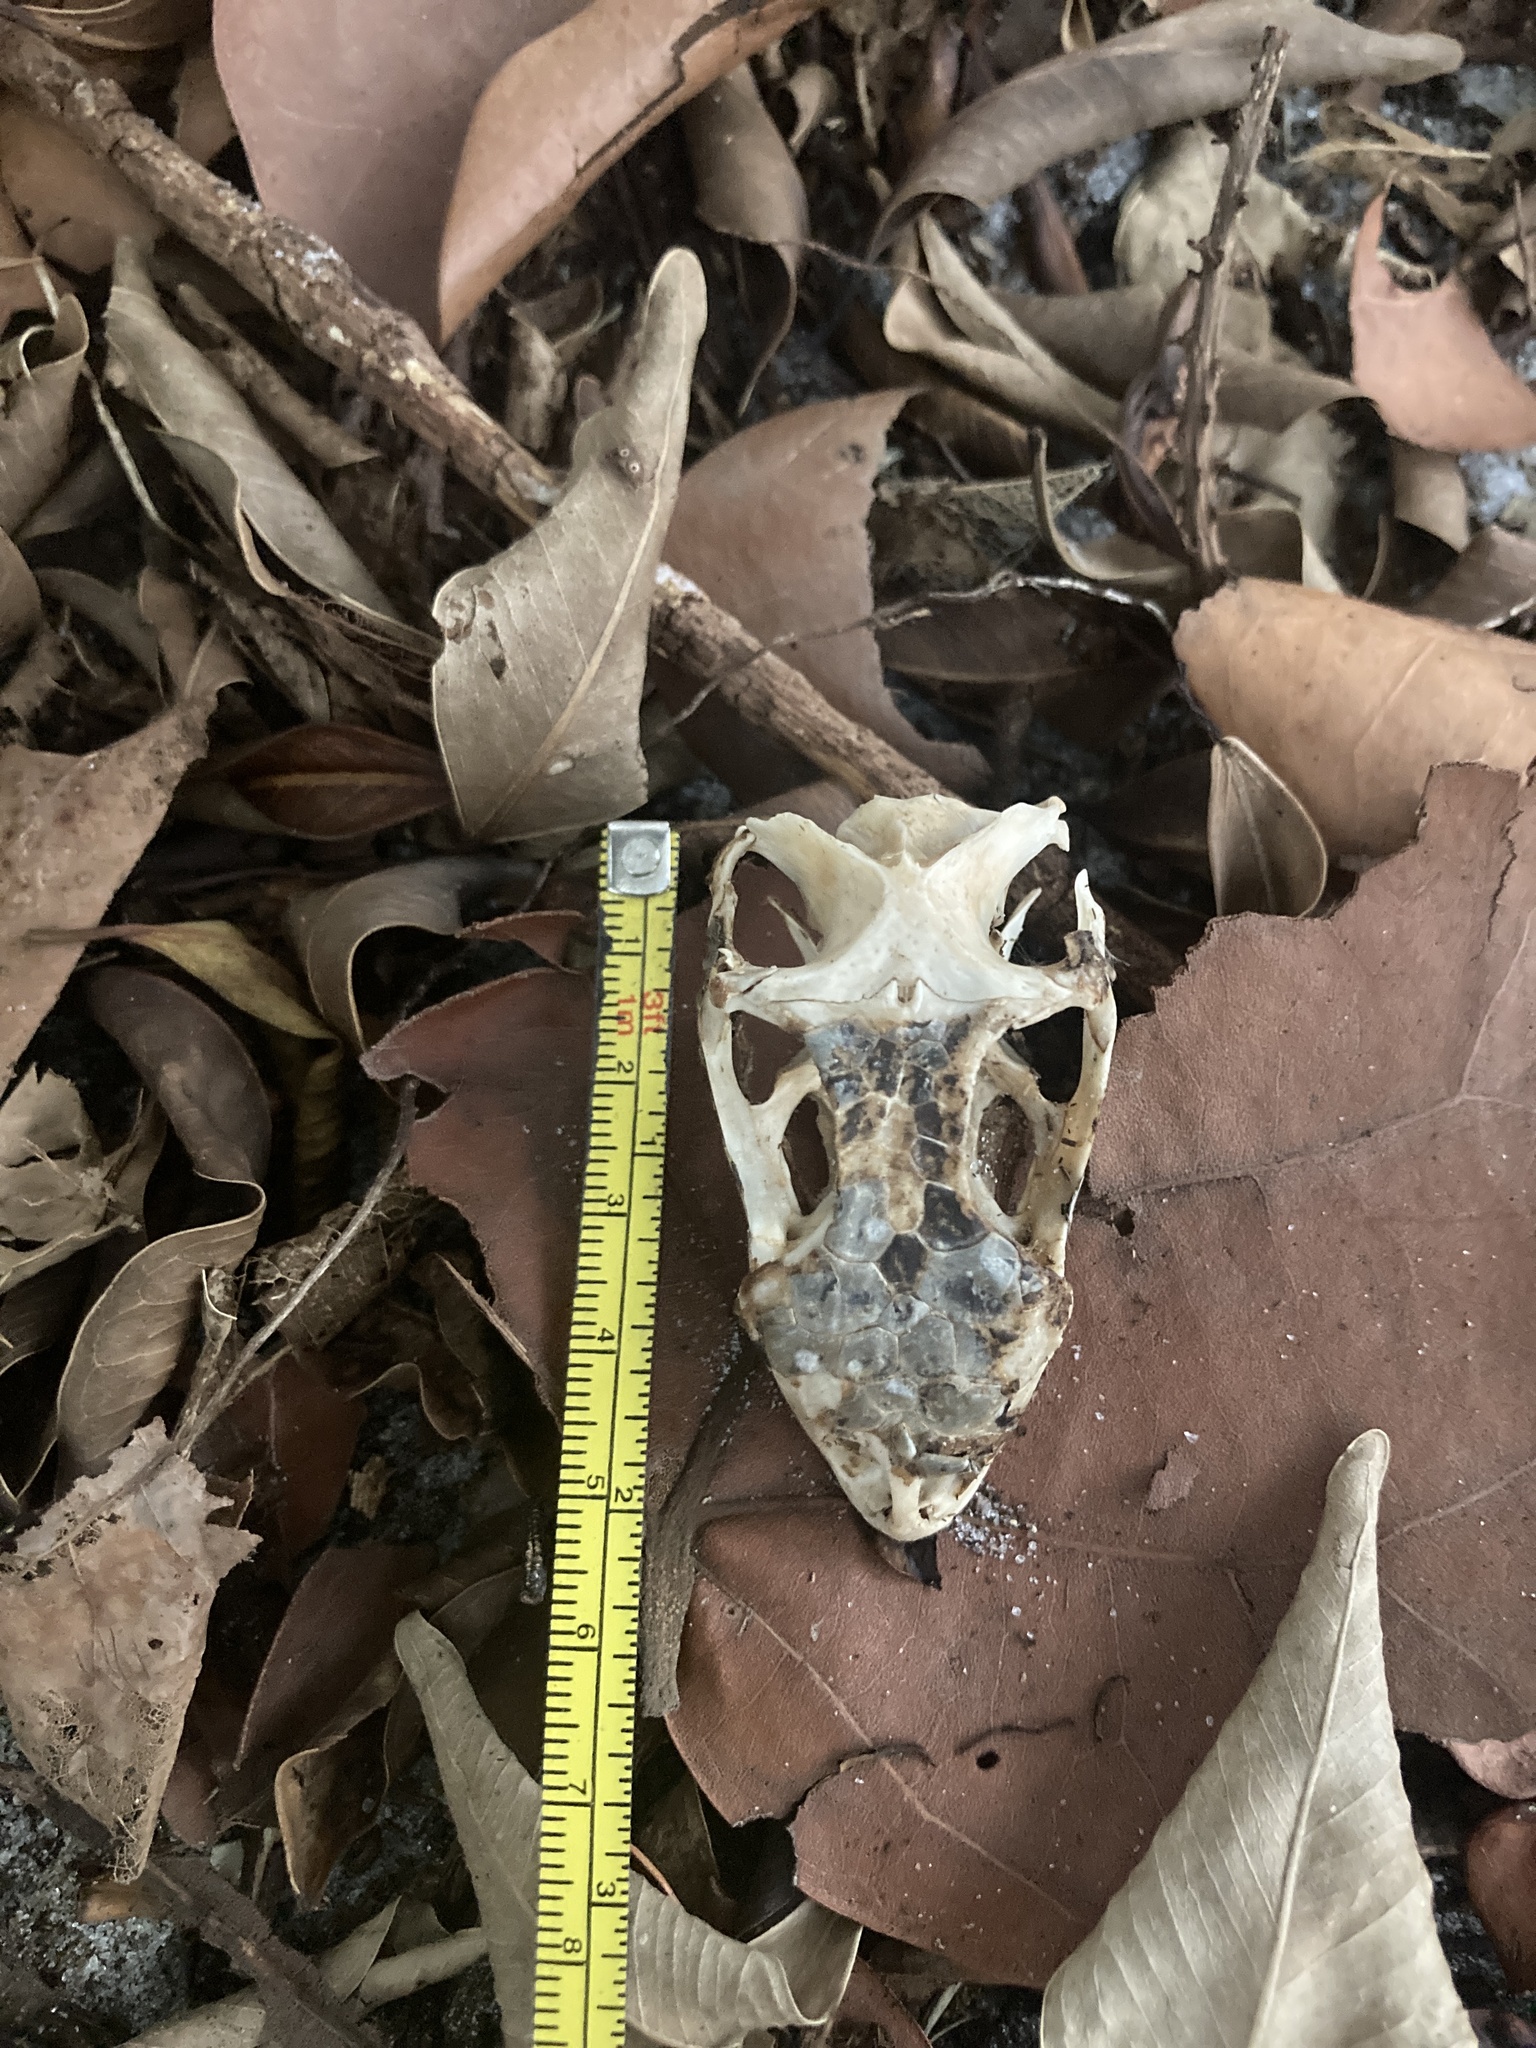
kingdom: Animalia
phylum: Chordata
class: Squamata
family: Iguanidae
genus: Iguana
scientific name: Iguana iguana
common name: Green iguana
